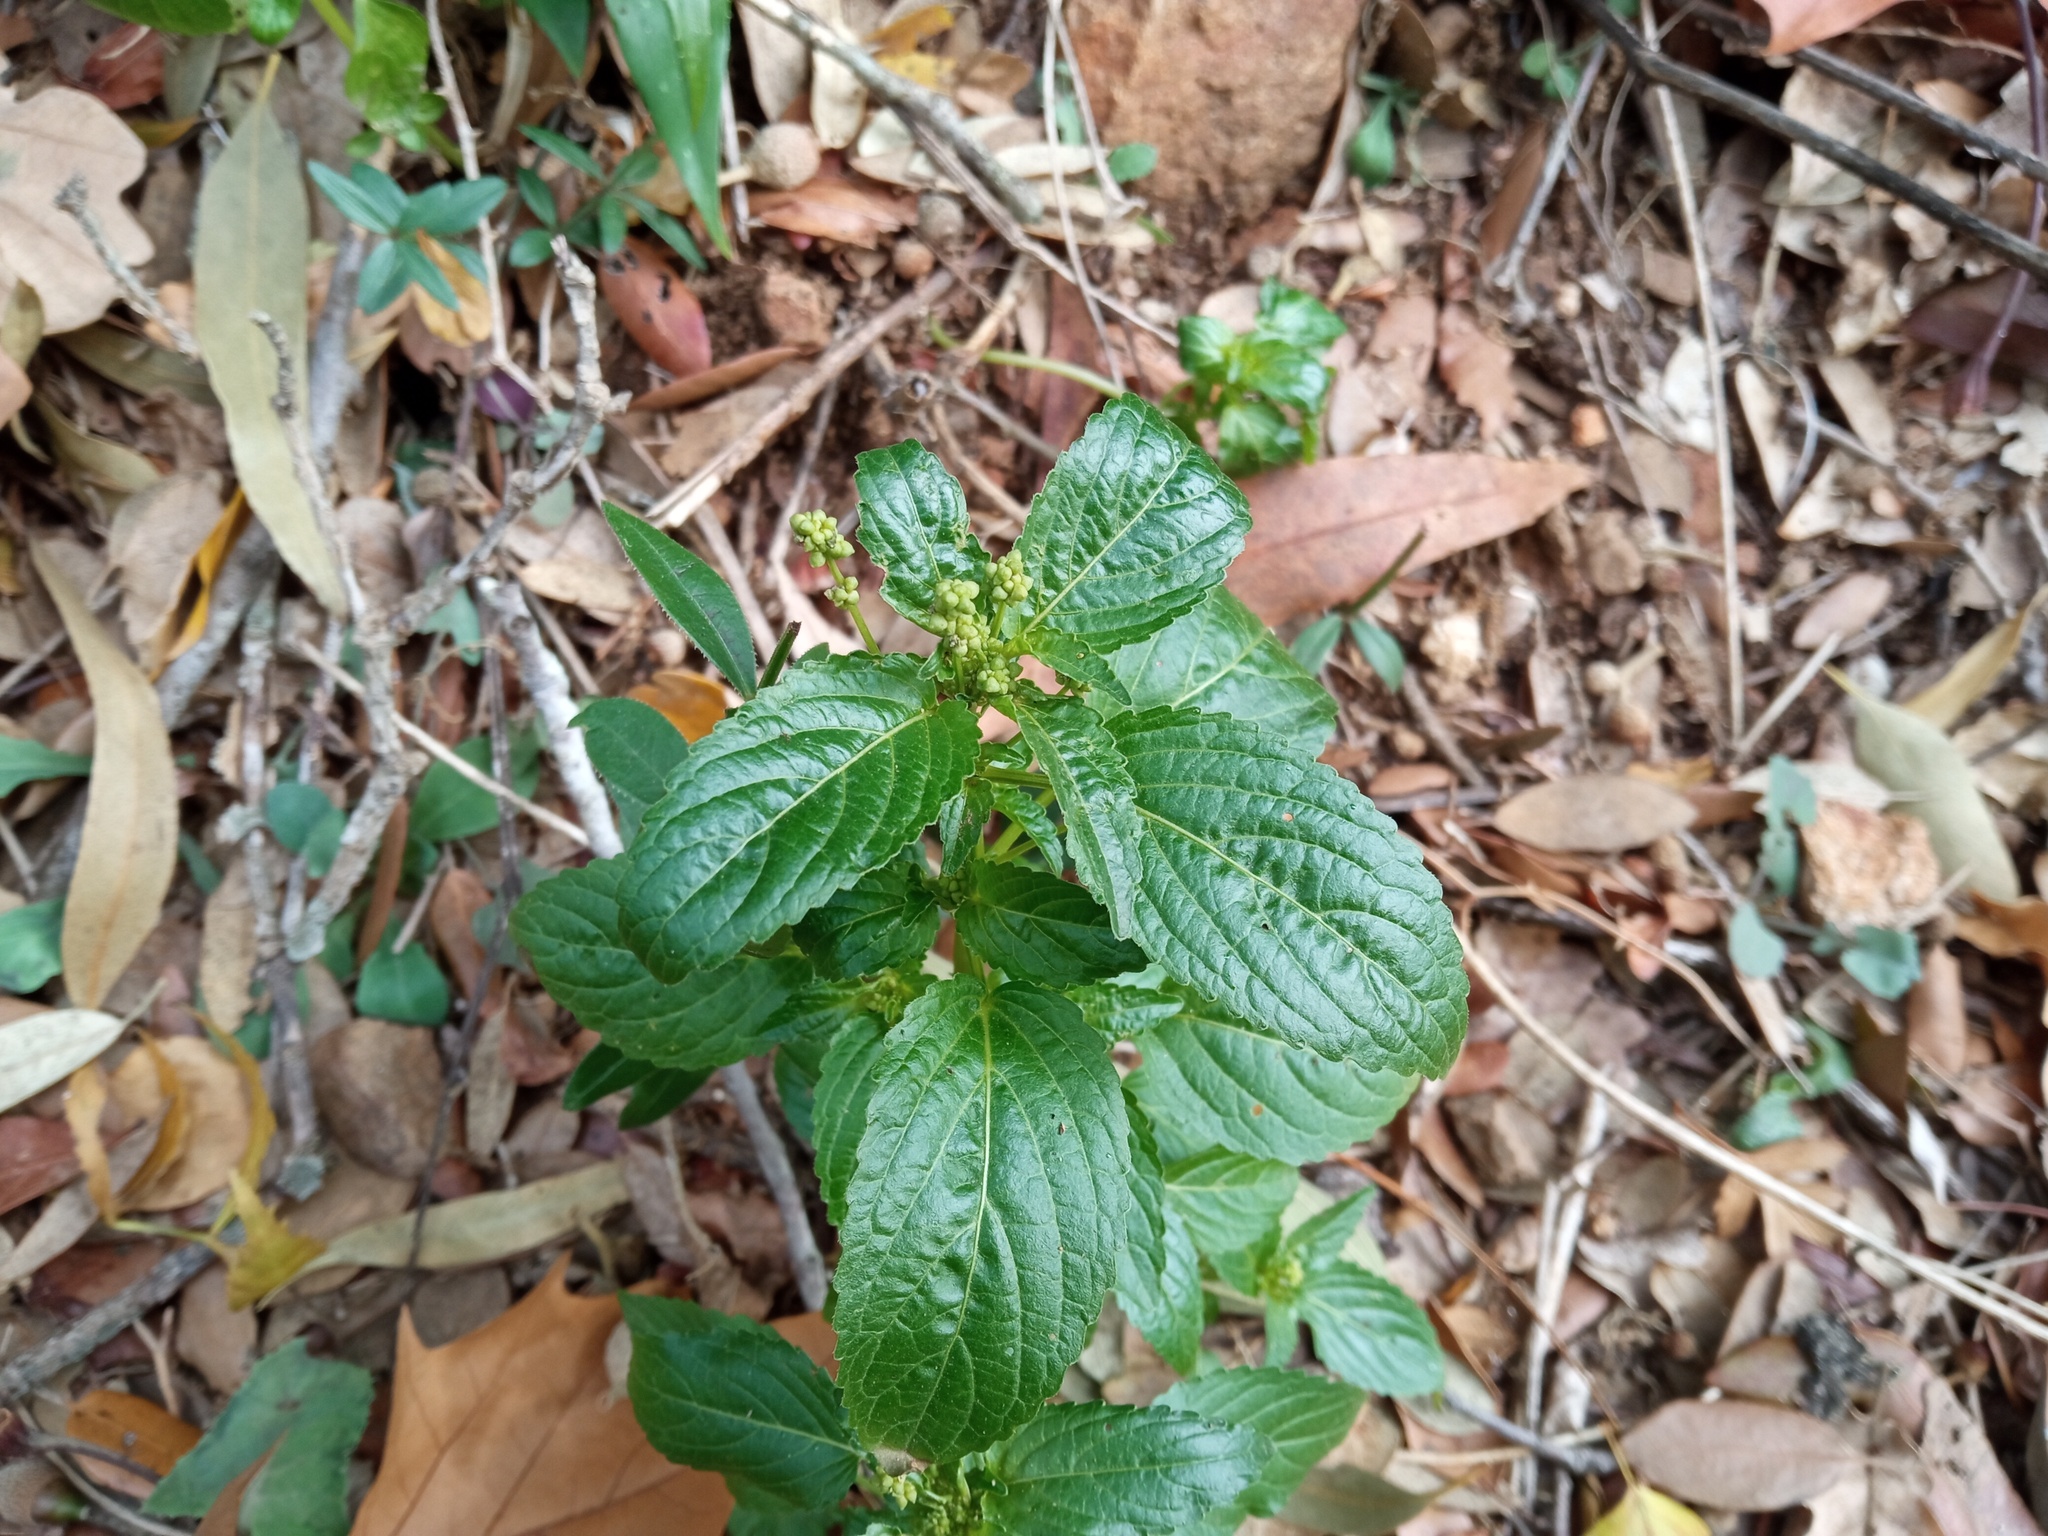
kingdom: Plantae
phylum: Tracheophyta
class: Magnoliopsida
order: Malpighiales
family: Euphorbiaceae
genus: Mercurialis
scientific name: Mercurialis annua
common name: Annual mercury
